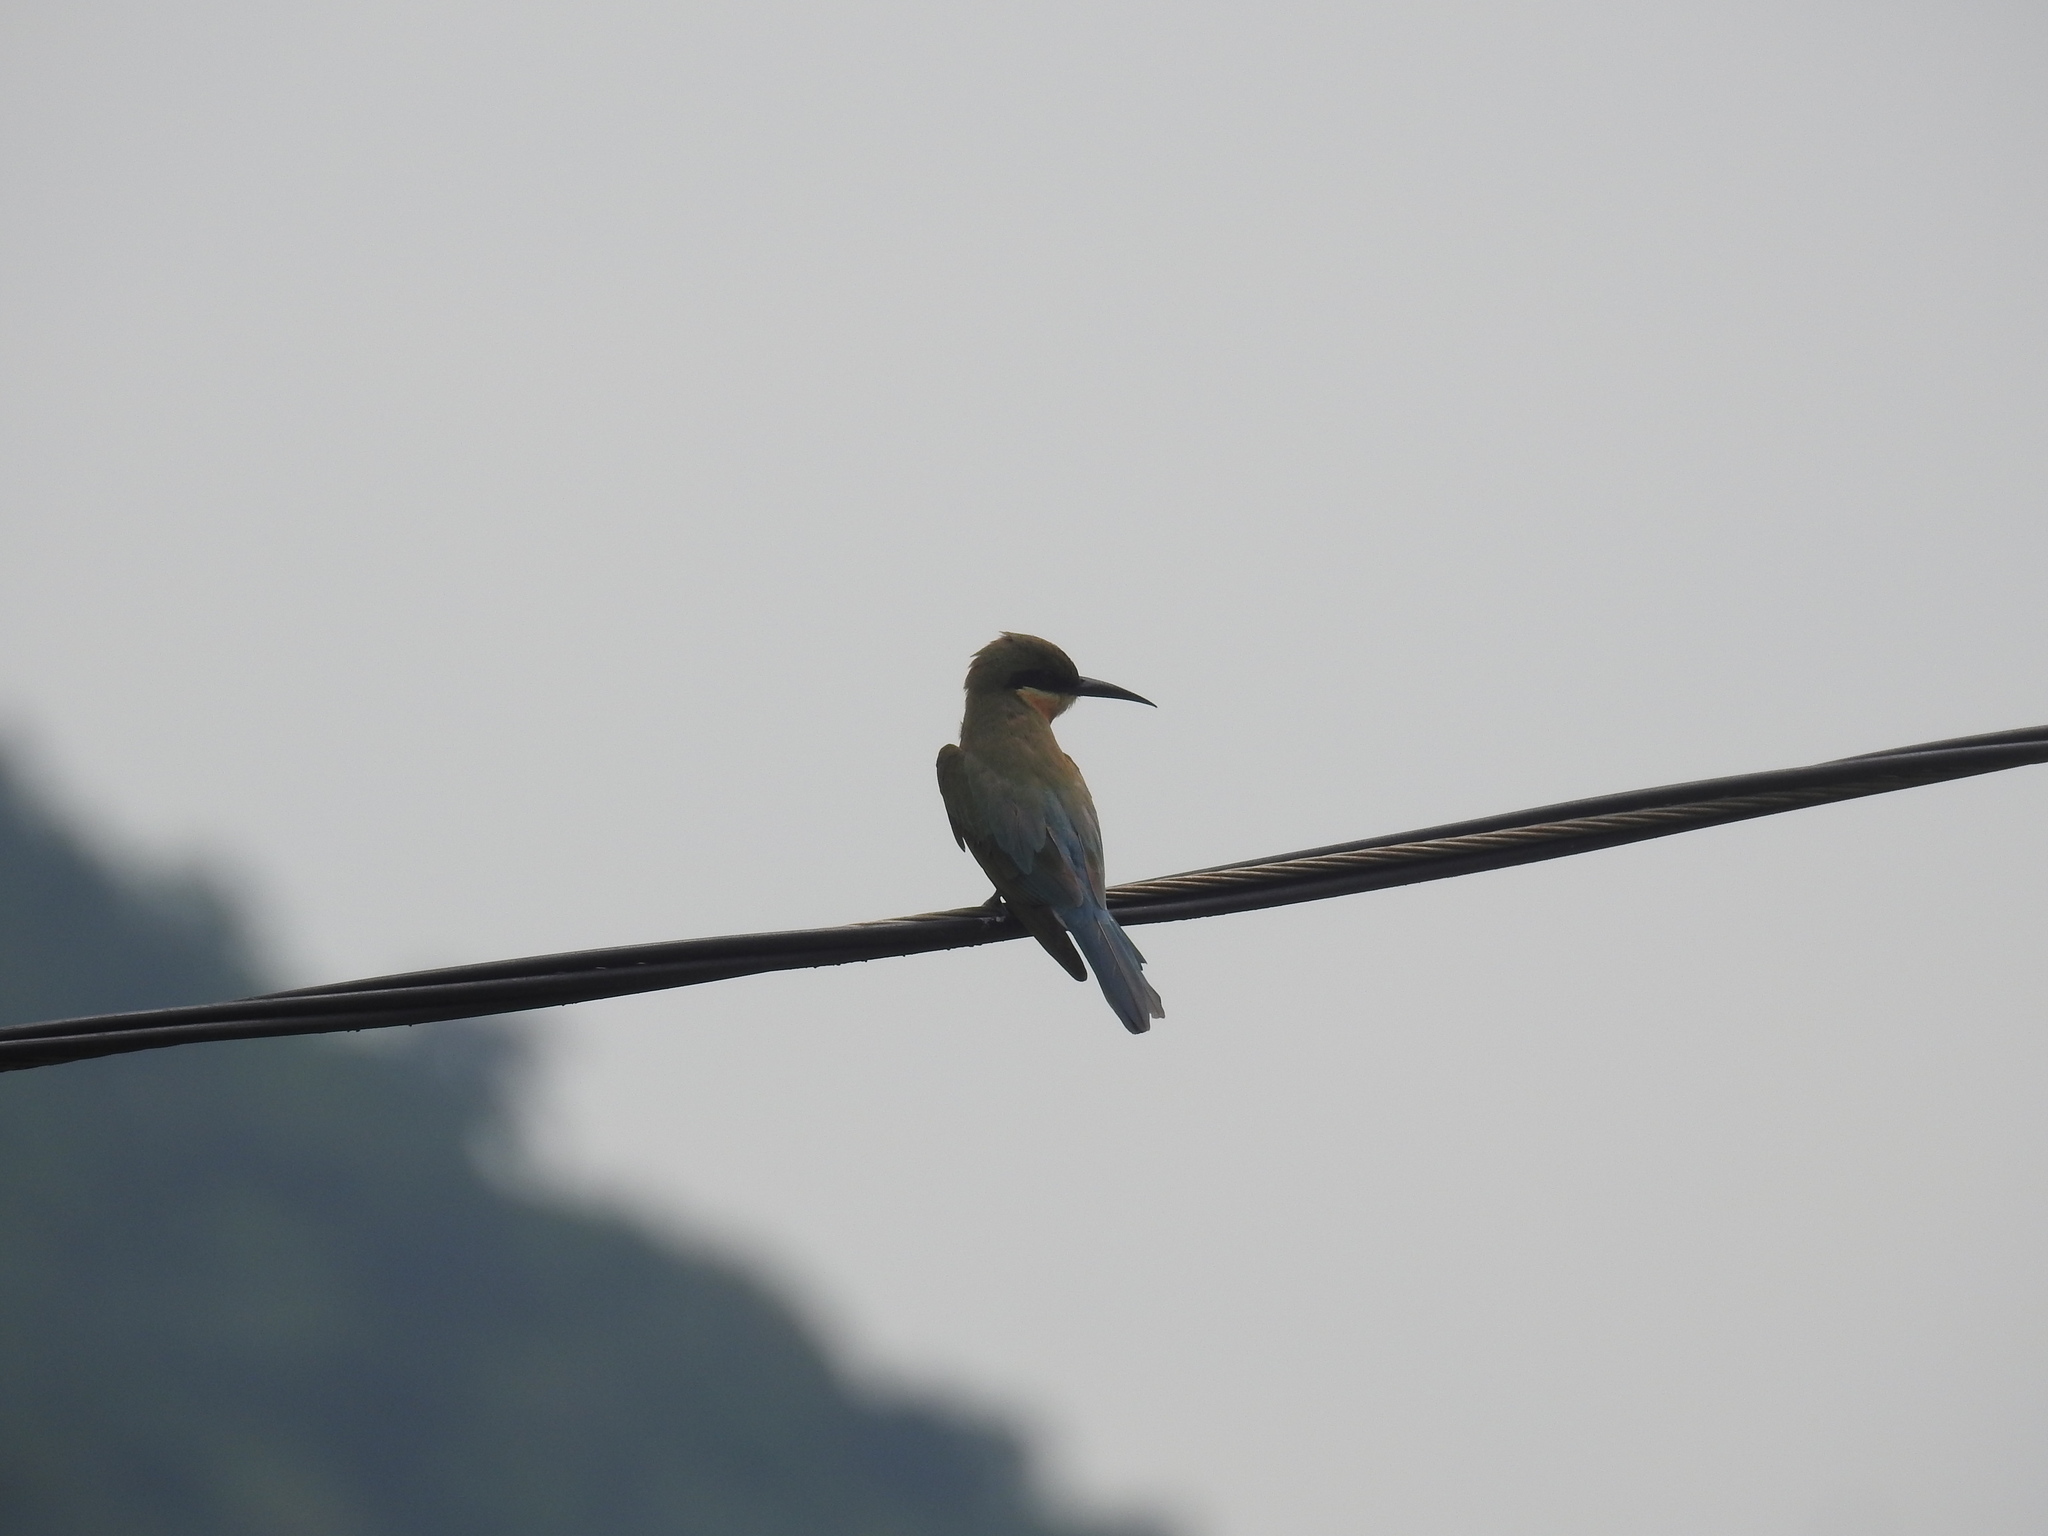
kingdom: Animalia
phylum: Chordata
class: Aves
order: Coraciiformes
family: Meropidae
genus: Merops
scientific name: Merops philippinus
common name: Blue-tailed bee-eater
